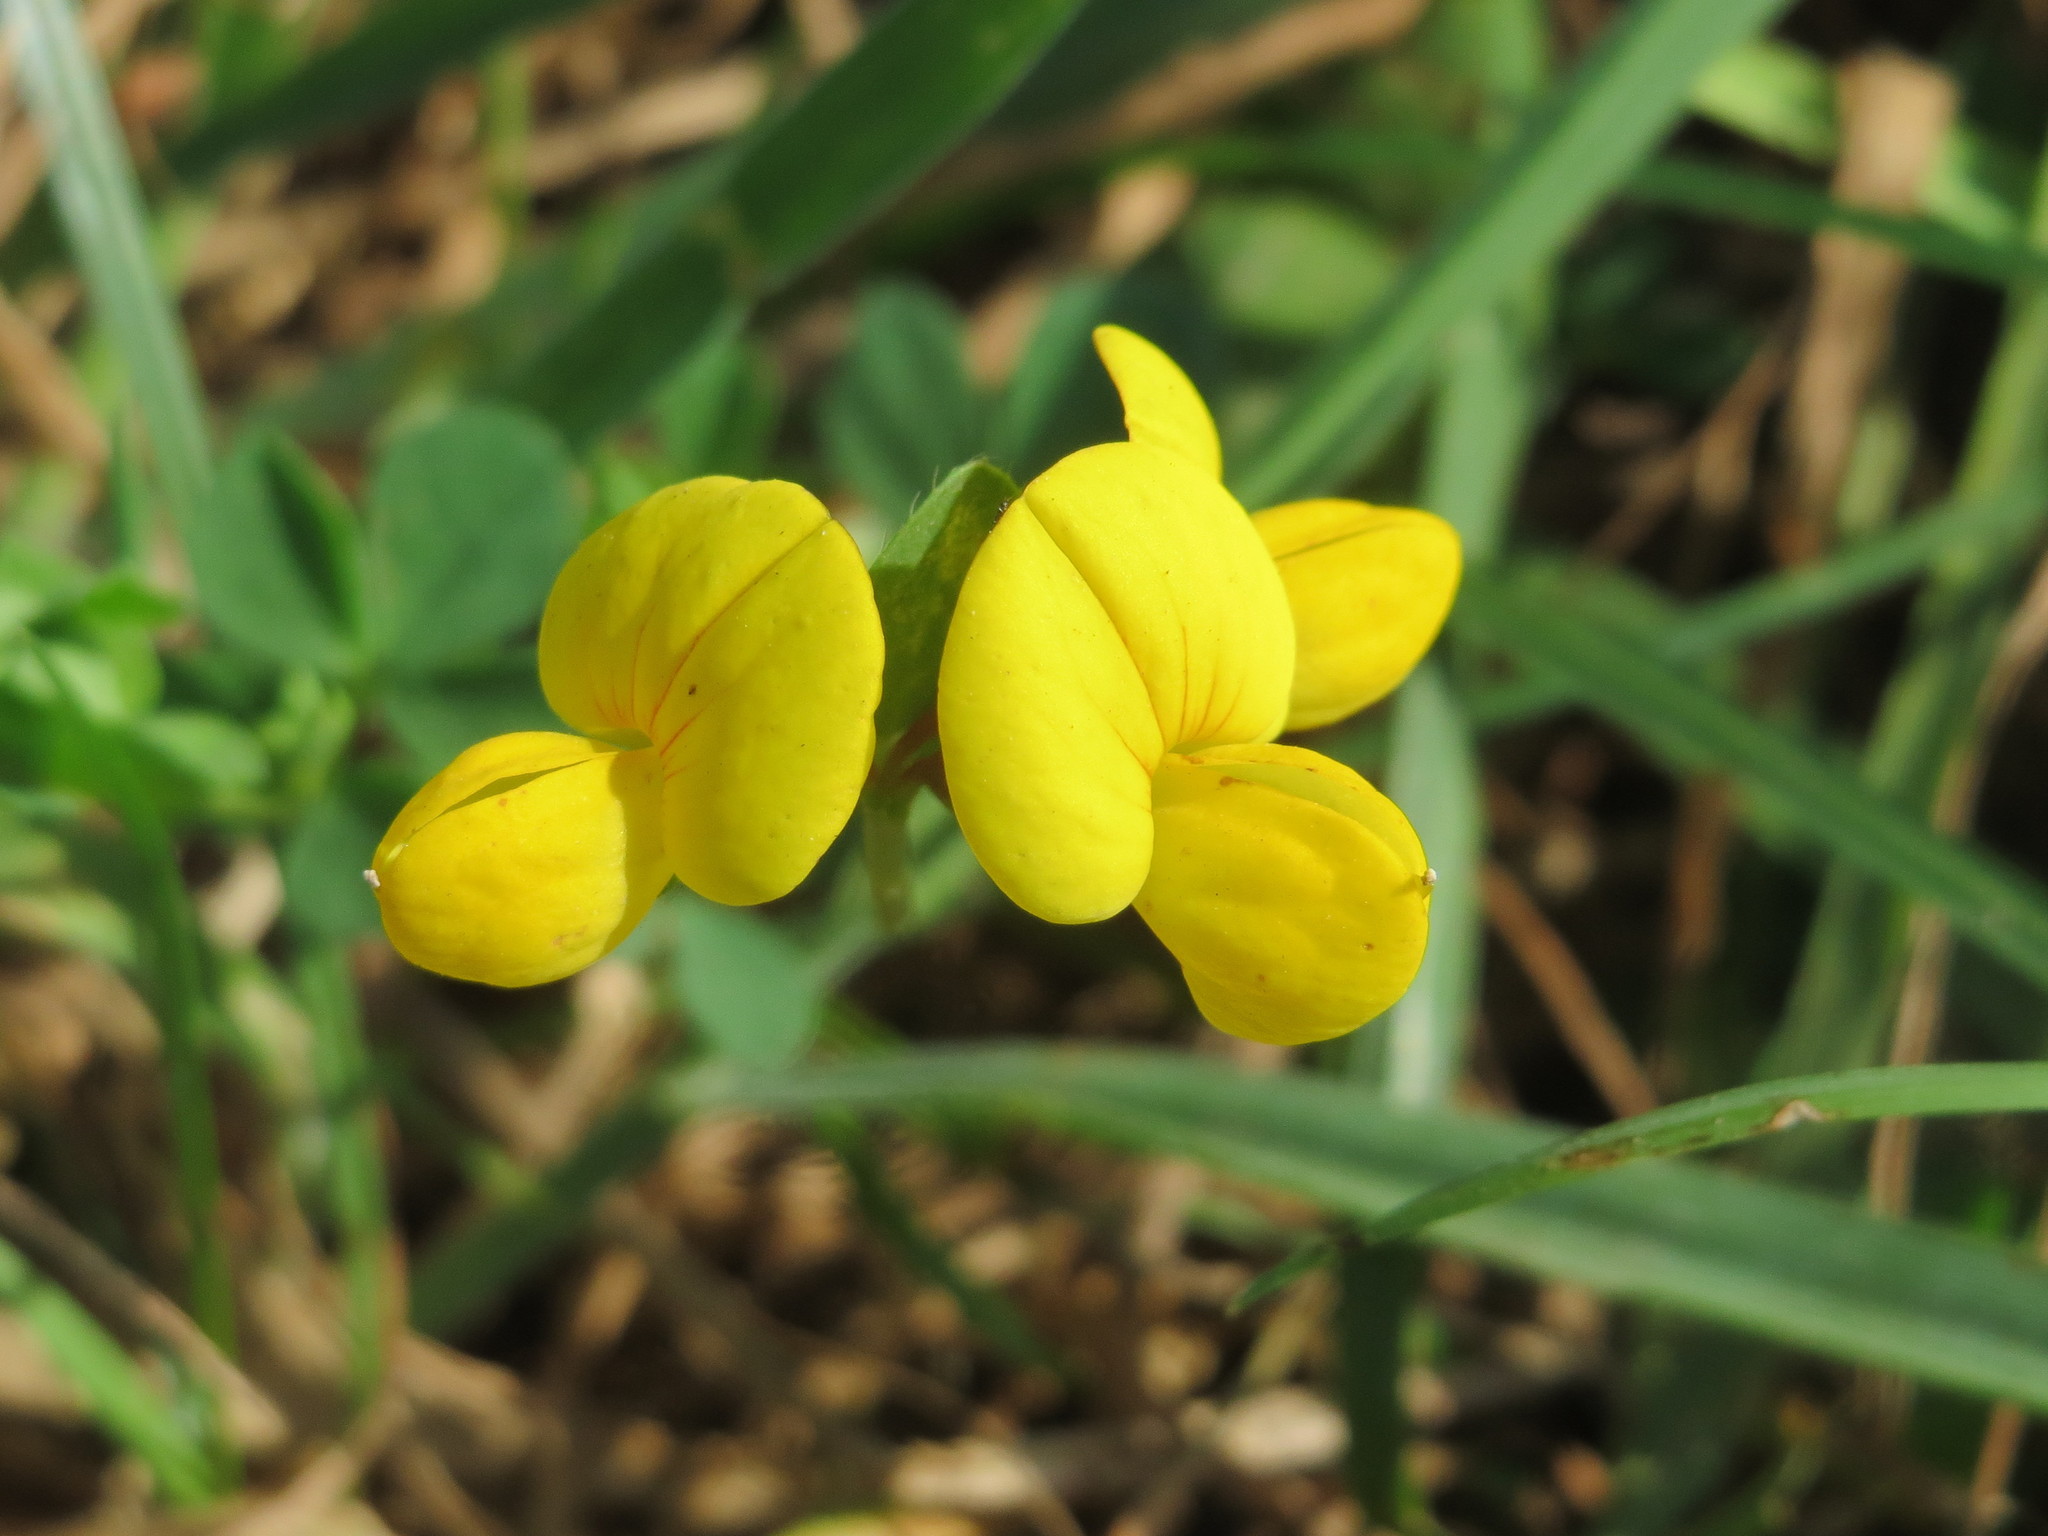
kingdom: Plantae
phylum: Tracheophyta
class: Magnoliopsida
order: Fabales
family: Fabaceae
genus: Lotus
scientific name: Lotus corniculatus
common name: Common bird's-foot-trefoil
